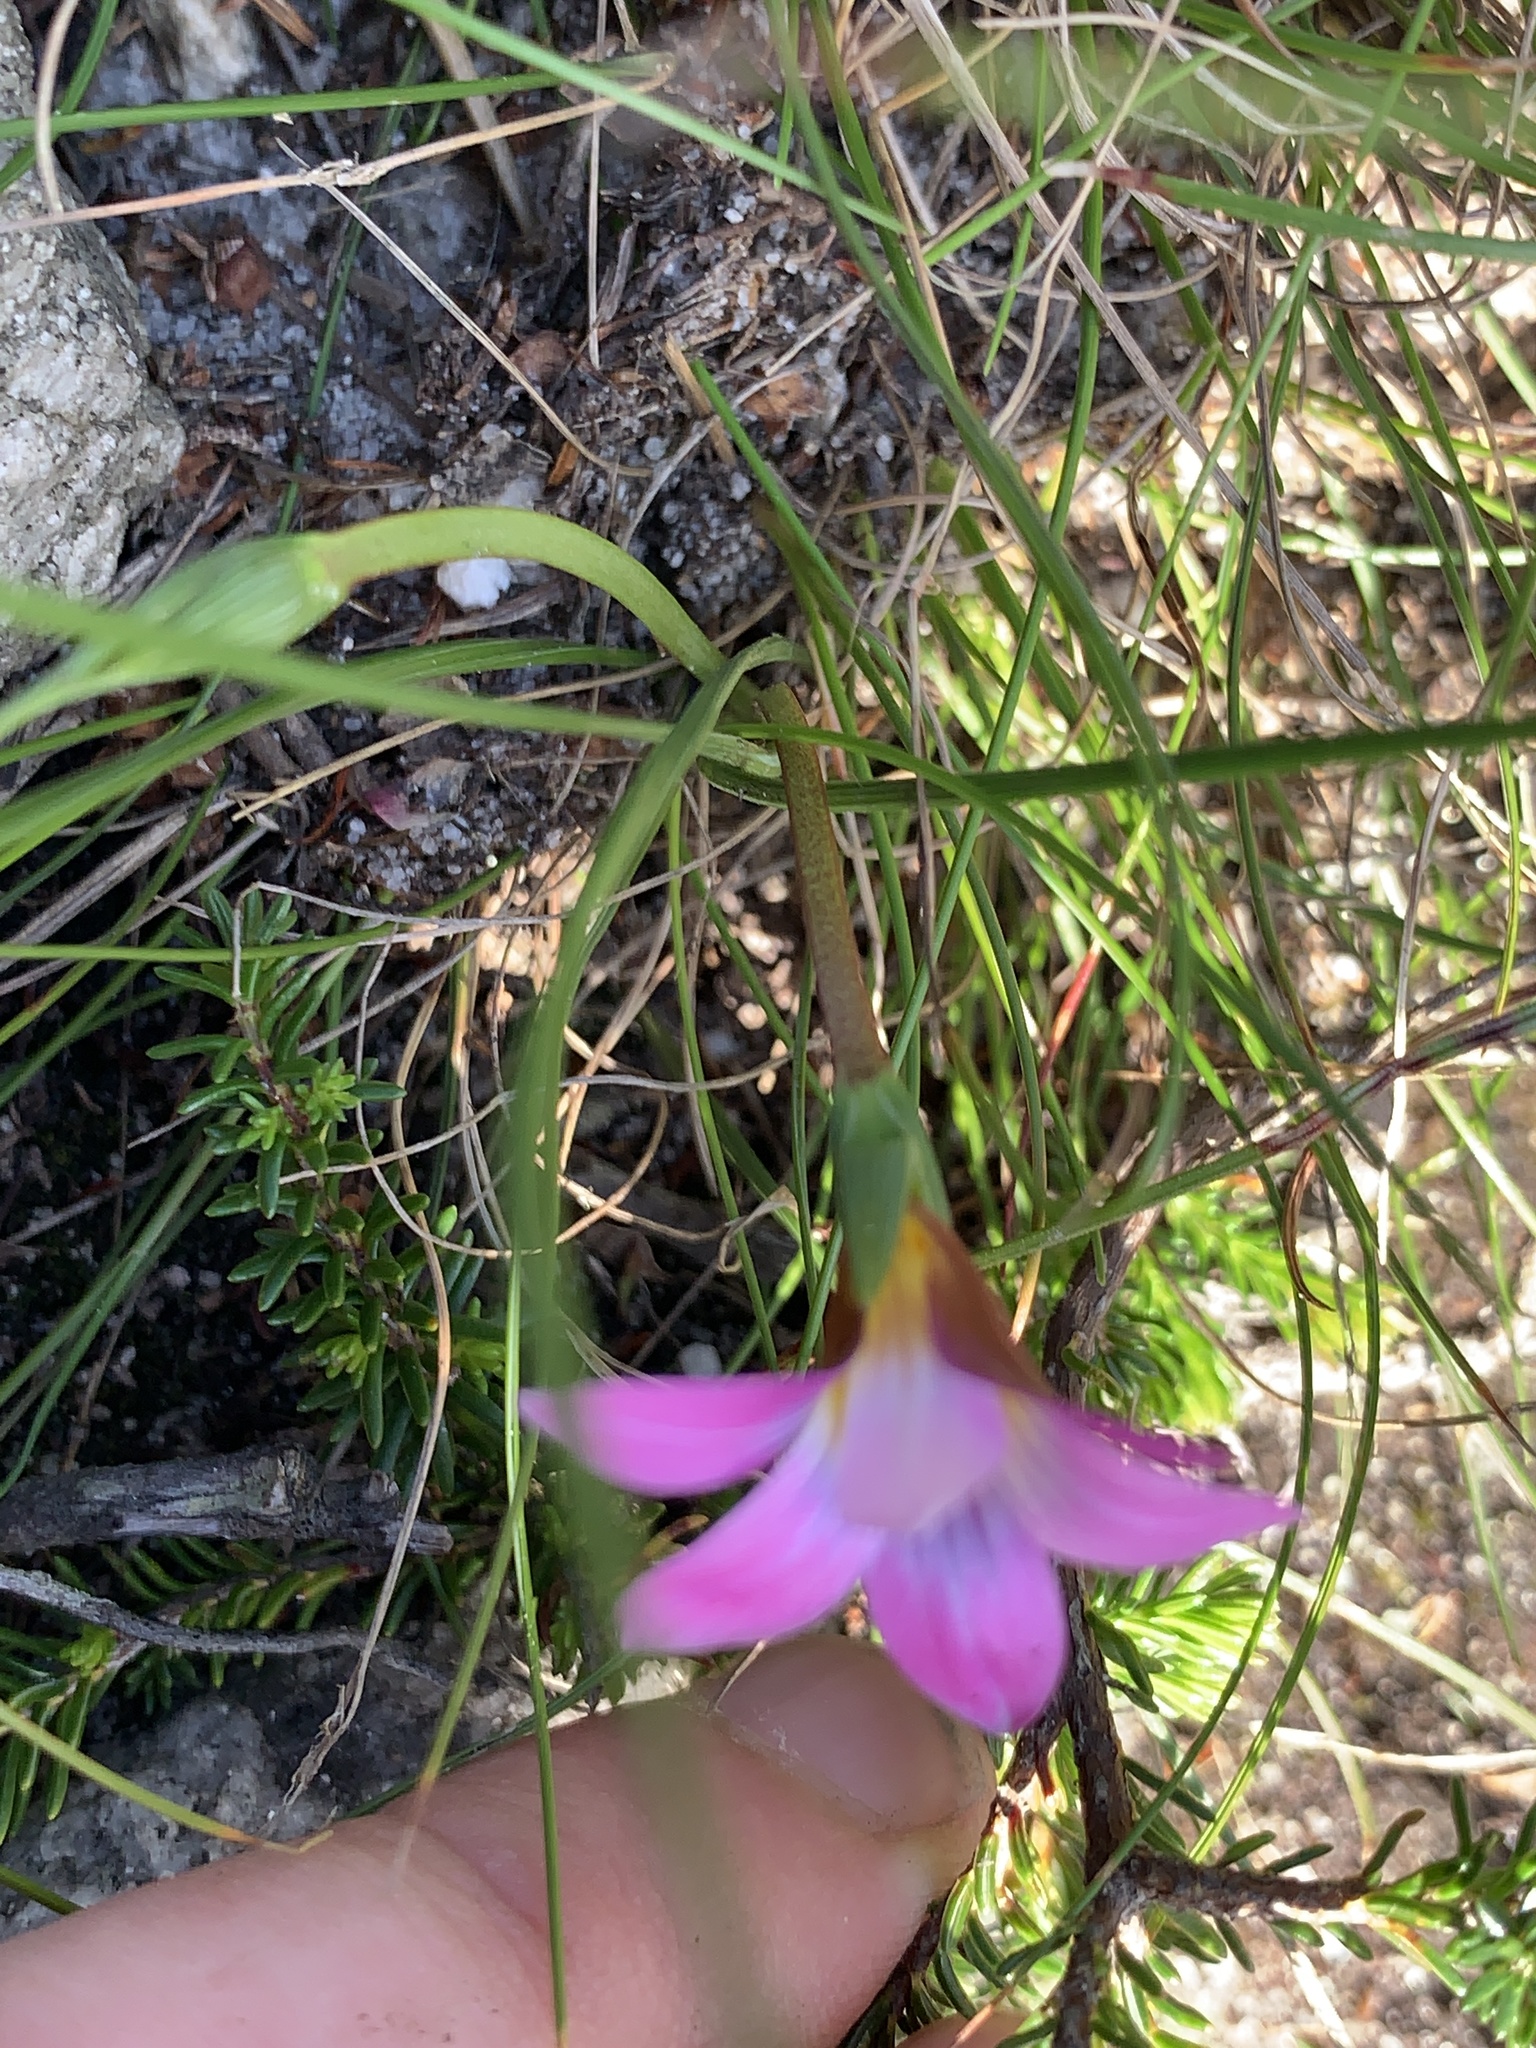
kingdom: Plantae
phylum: Tracheophyta
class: Liliopsida
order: Asparagales
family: Iridaceae
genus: Romulea
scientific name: Romulea rosea
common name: Oniongrass
